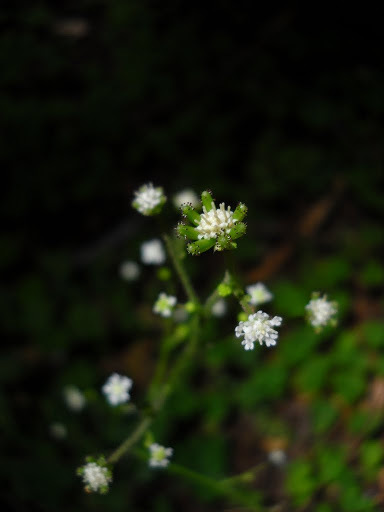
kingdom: Plantae
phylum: Tracheophyta
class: Magnoliopsida
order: Asterales
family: Asteraceae
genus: Adenocaulon
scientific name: Adenocaulon bicolor
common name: Trailplant
